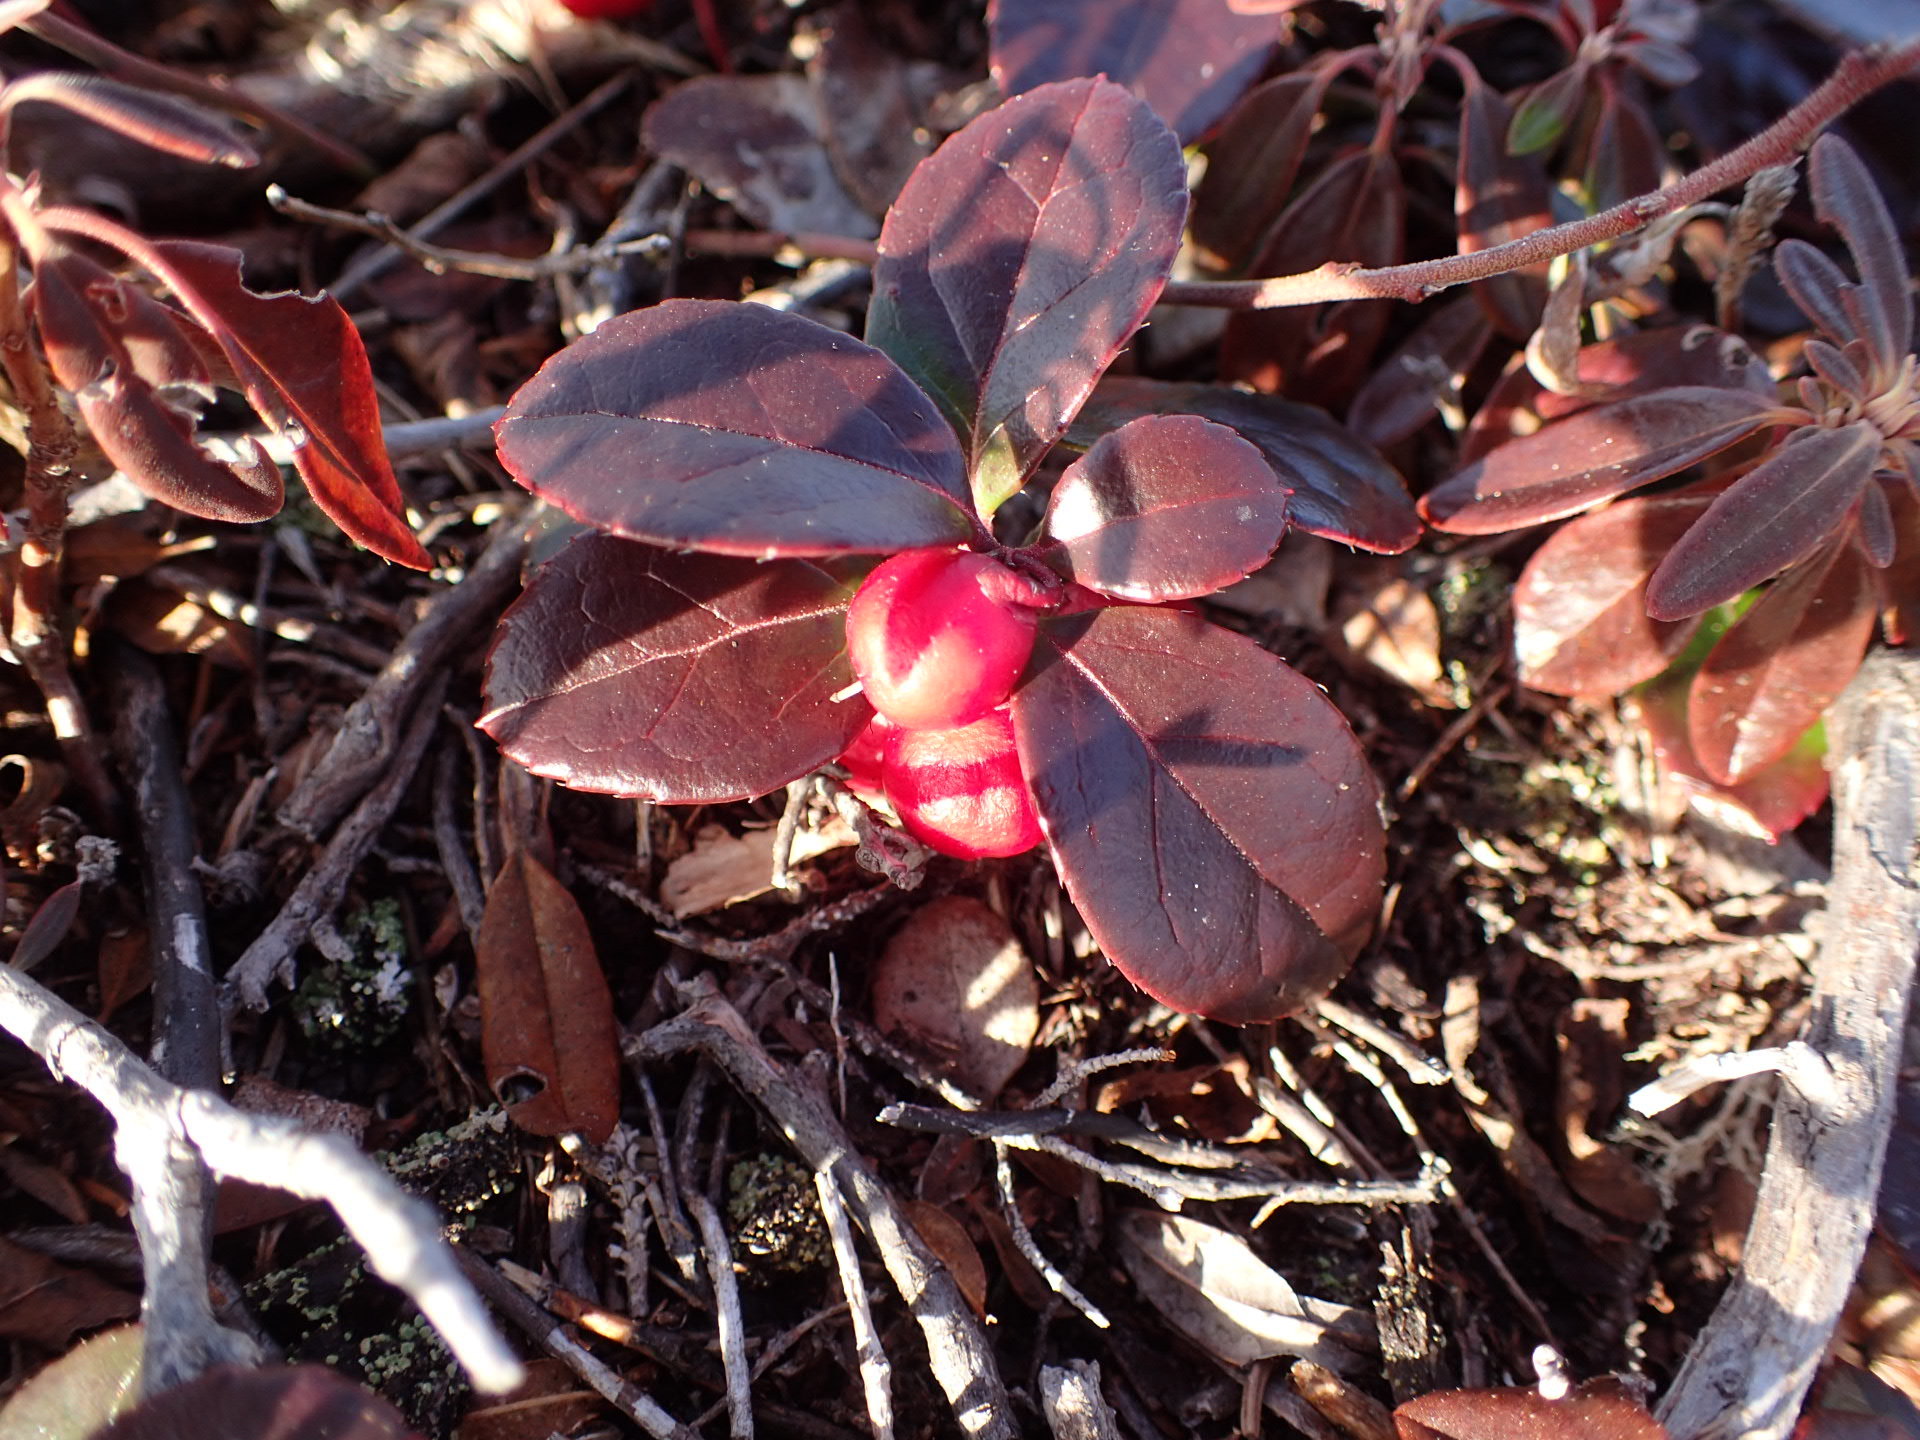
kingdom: Plantae
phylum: Tracheophyta
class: Magnoliopsida
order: Ericales
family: Ericaceae
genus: Gaultheria
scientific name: Gaultheria procumbens
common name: Checkerberry
